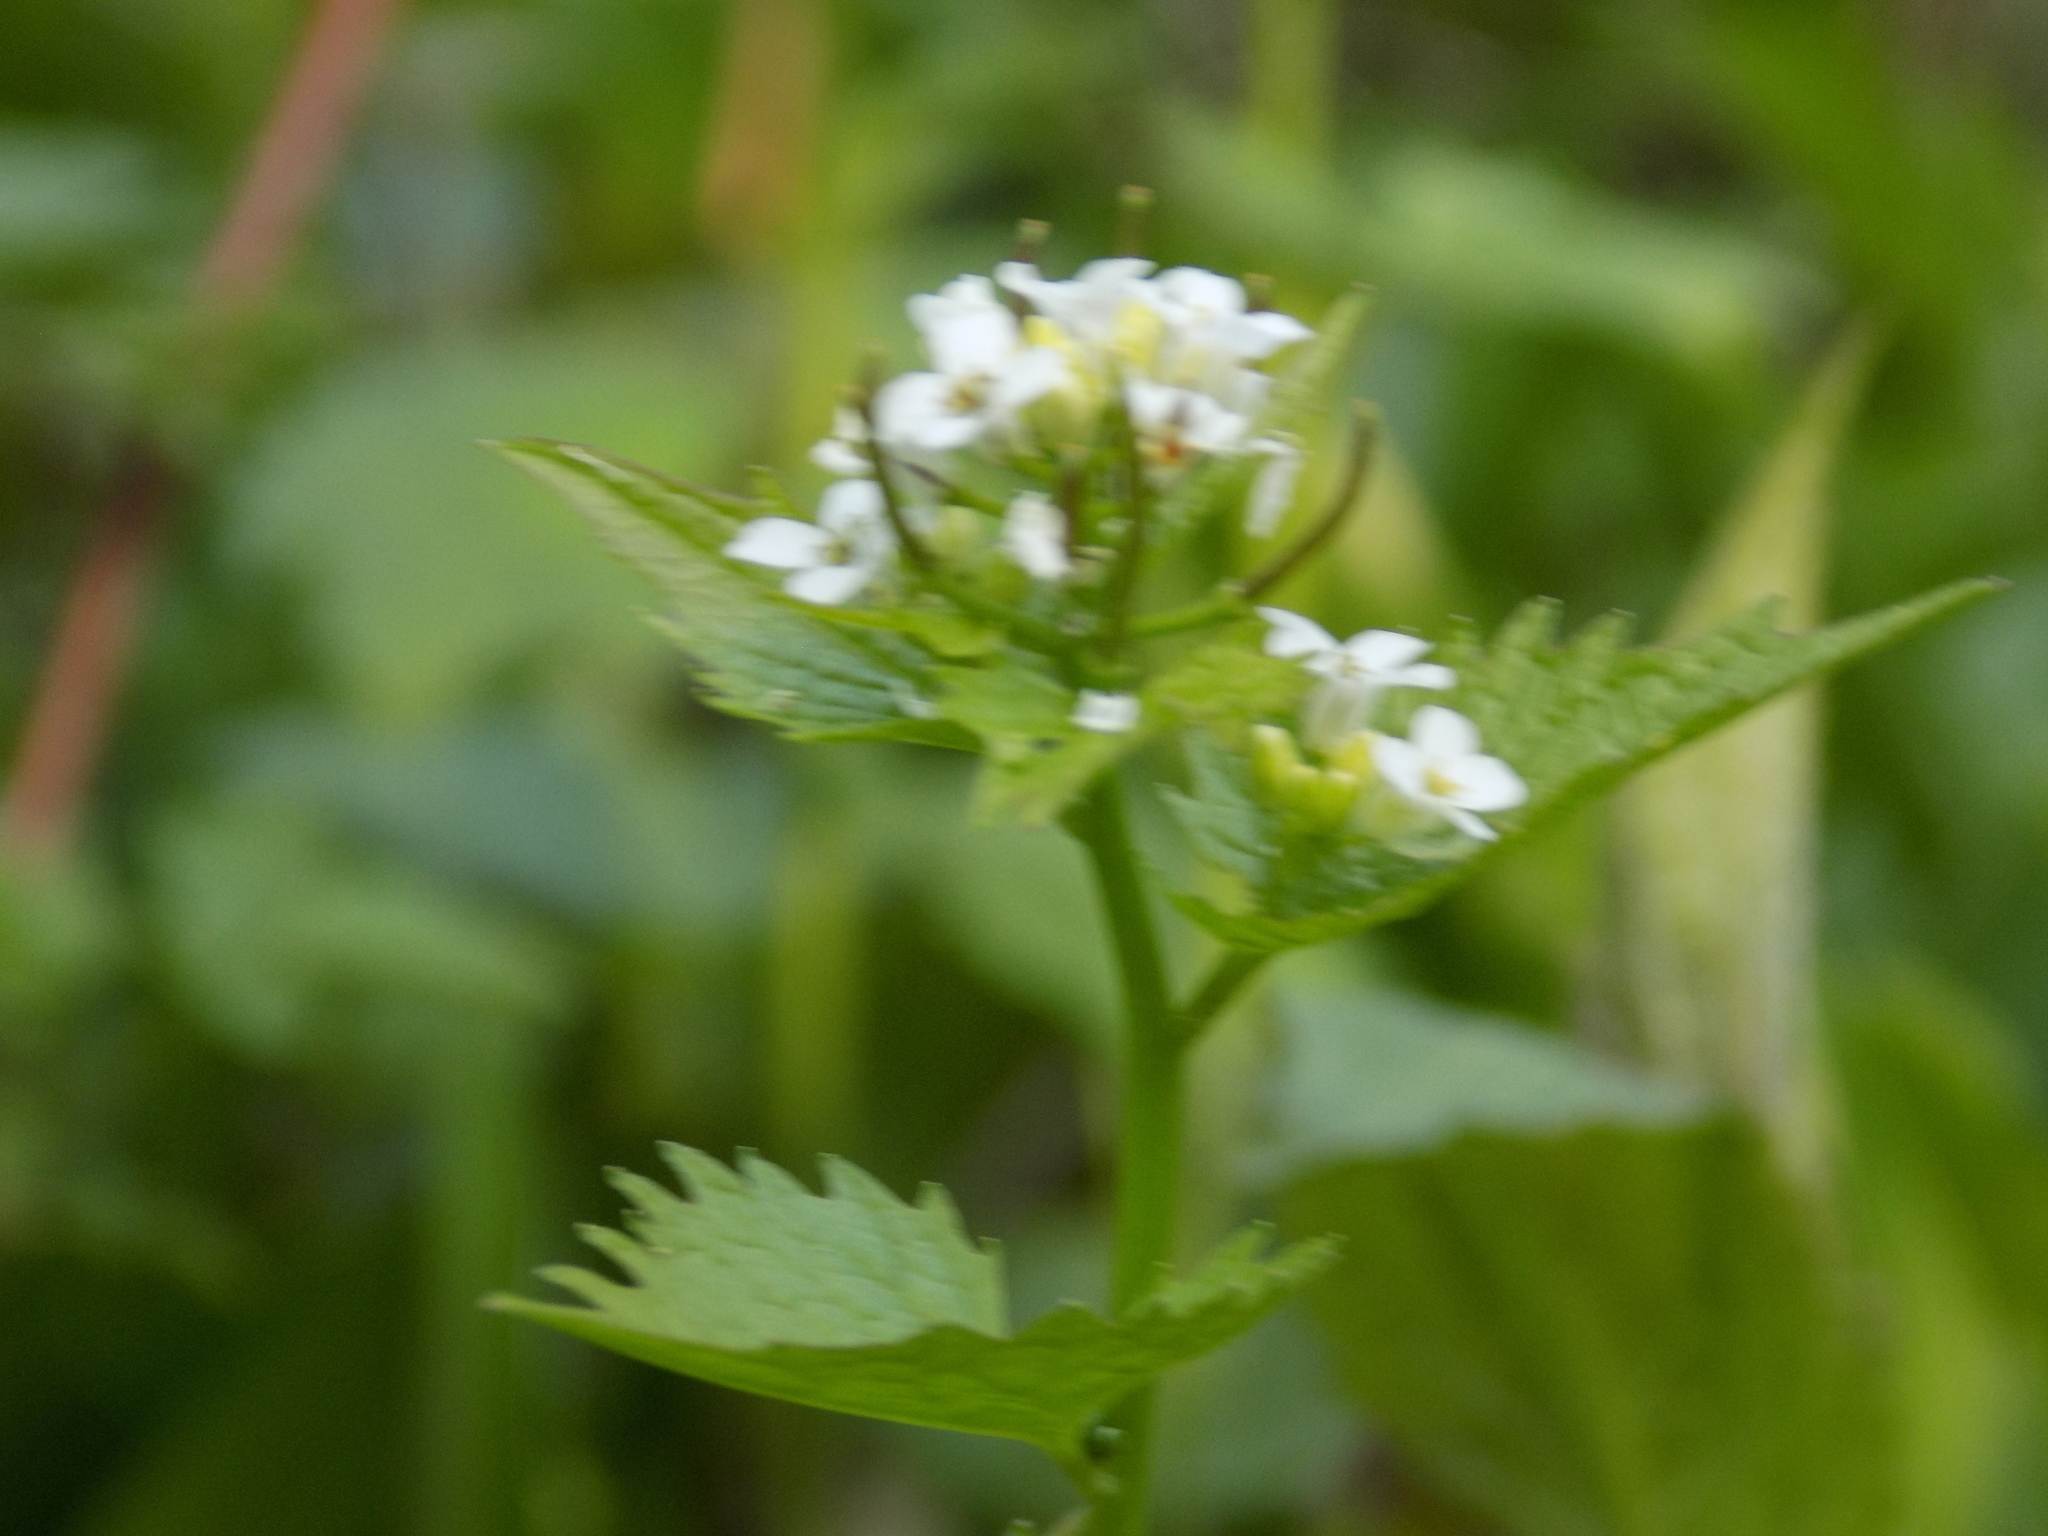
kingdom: Plantae
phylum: Tracheophyta
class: Magnoliopsida
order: Brassicales
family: Brassicaceae
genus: Alliaria
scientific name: Alliaria petiolata
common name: Garlic mustard
